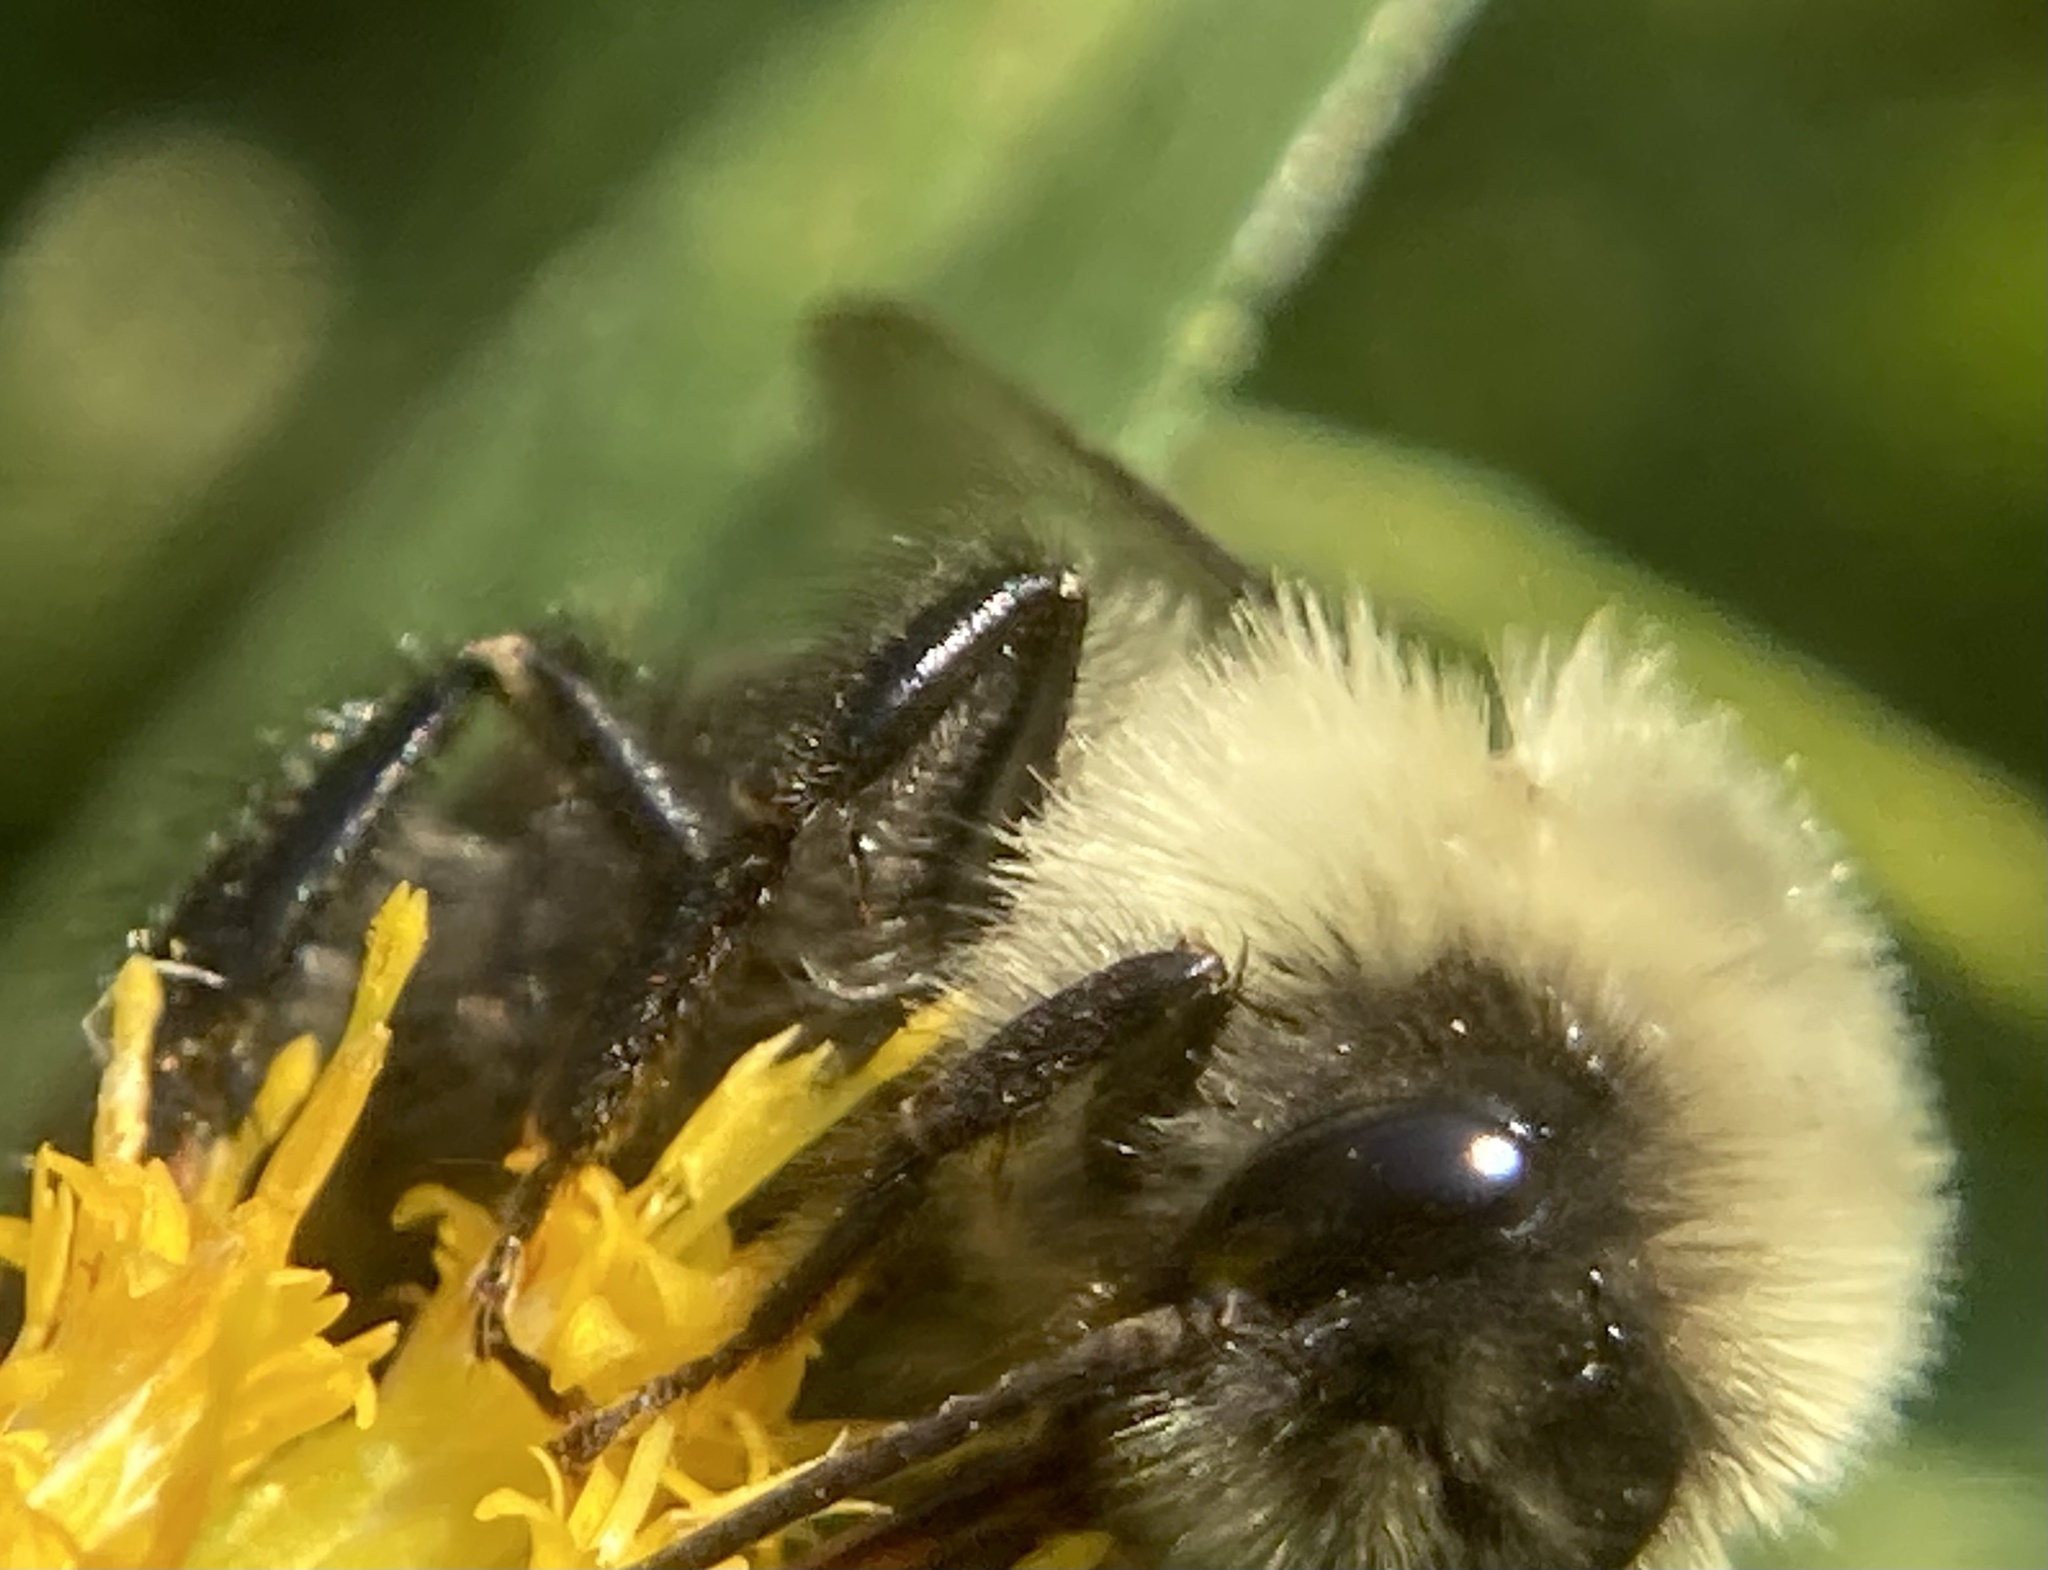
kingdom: Animalia
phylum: Arthropoda
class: Insecta
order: Hymenoptera
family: Apidae
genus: Bombus
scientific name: Bombus impatiens
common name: Common eastern bumble bee
